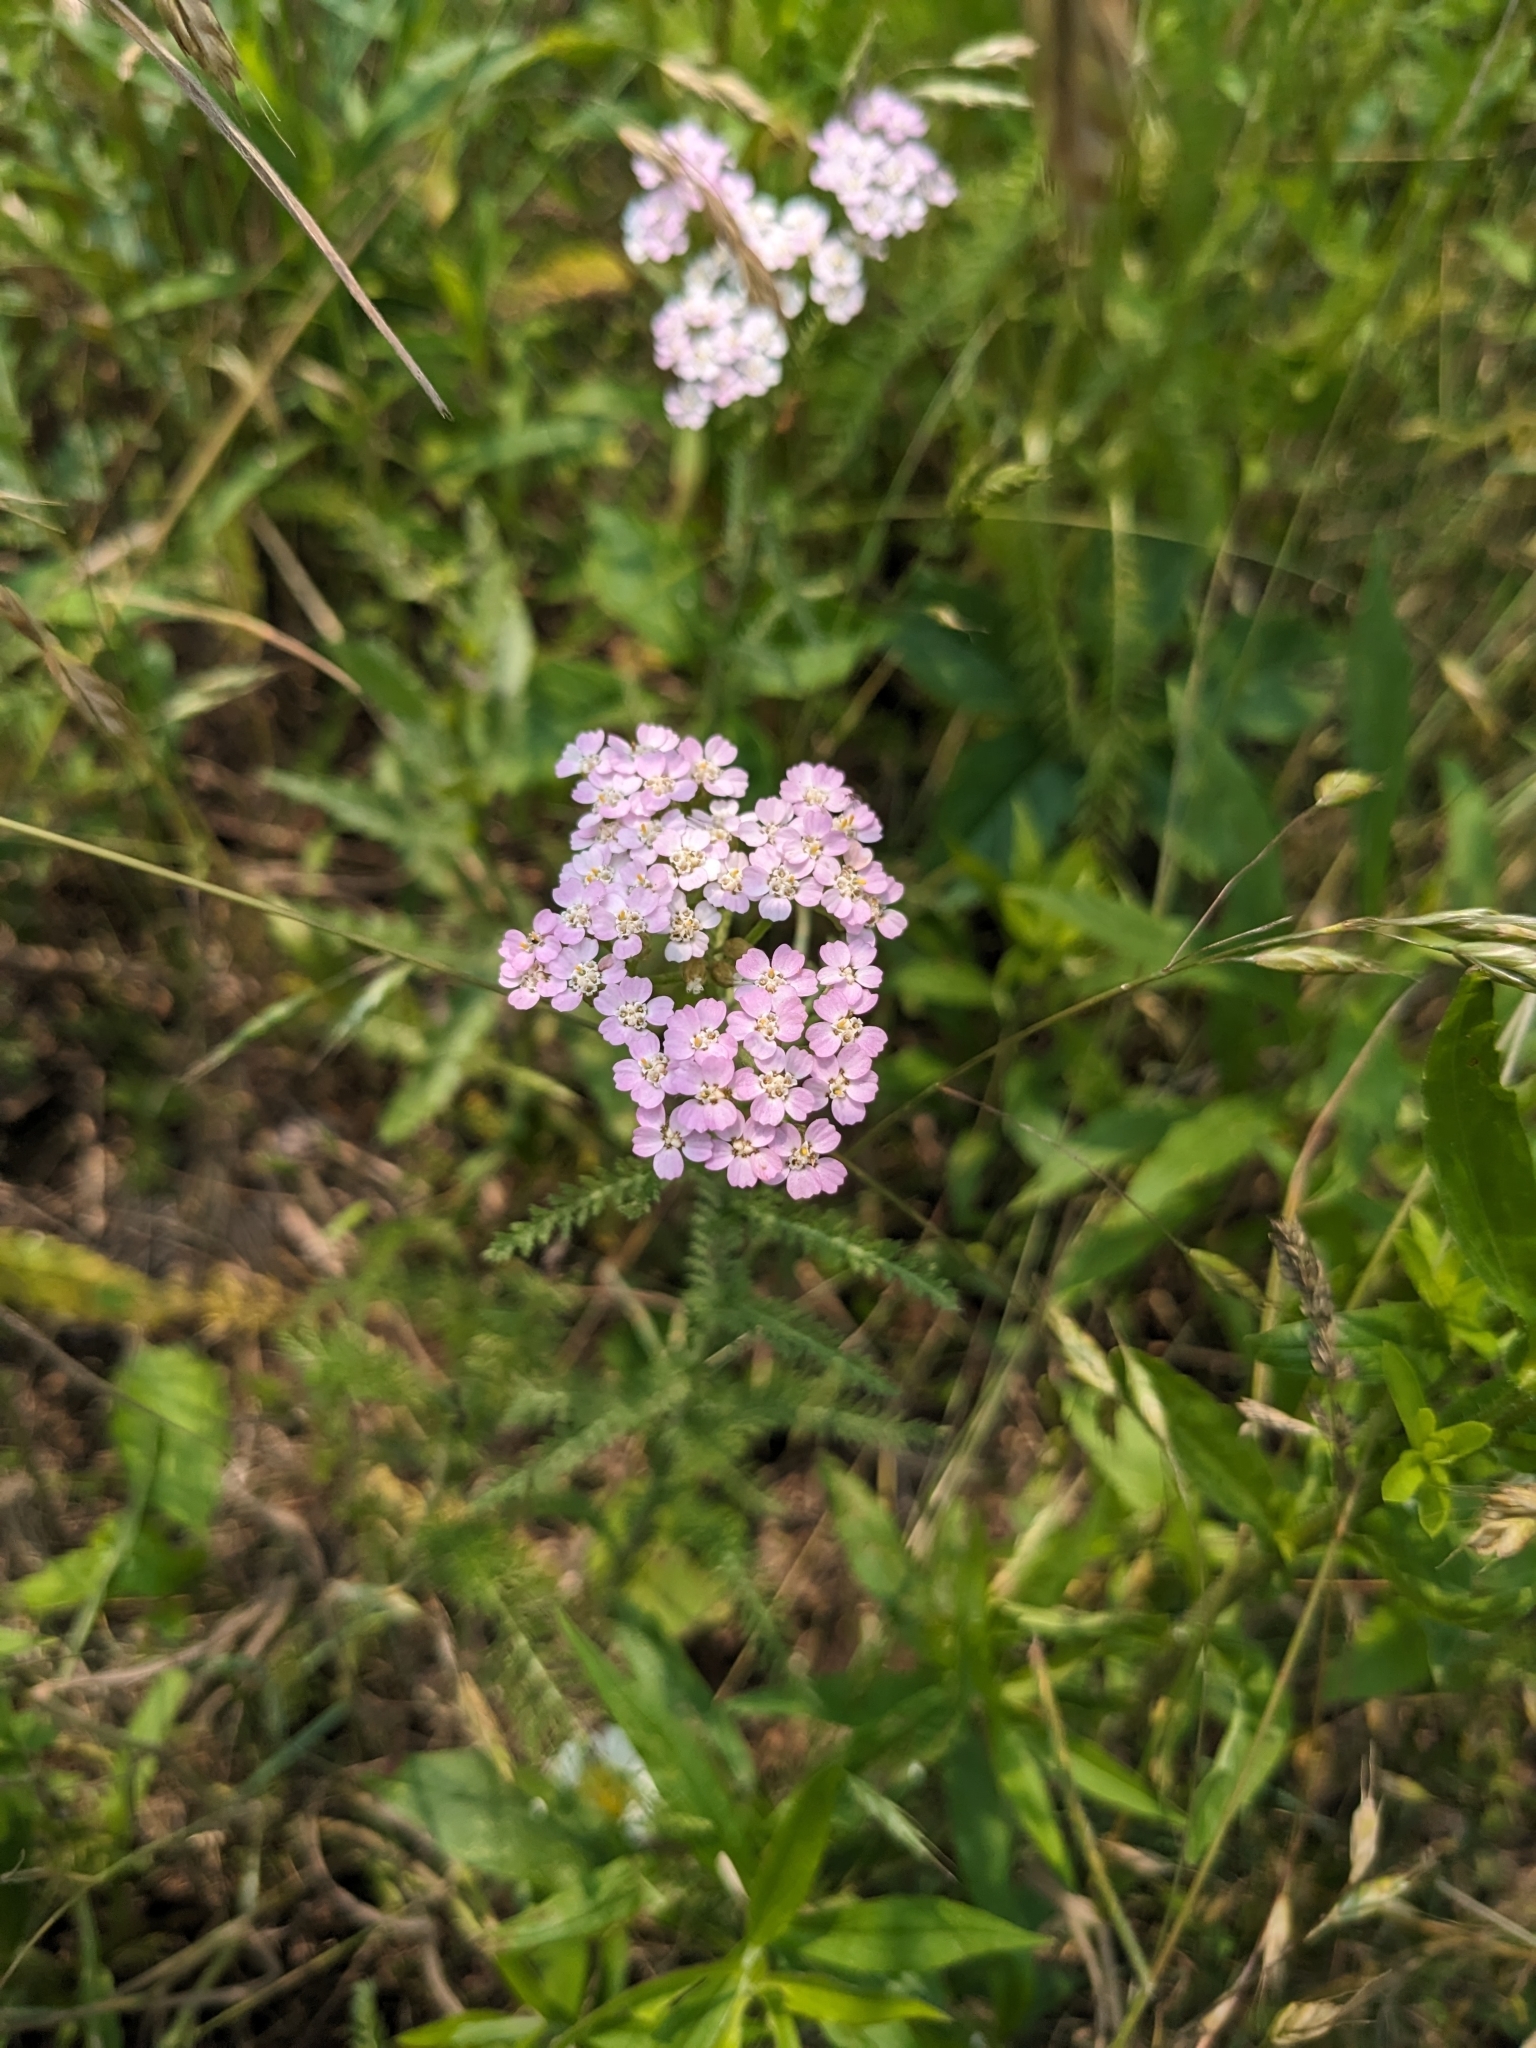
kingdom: Plantae
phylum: Tracheophyta
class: Magnoliopsida
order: Asterales
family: Asteraceae
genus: Achillea
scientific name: Achillea millefolium
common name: Yarrow
